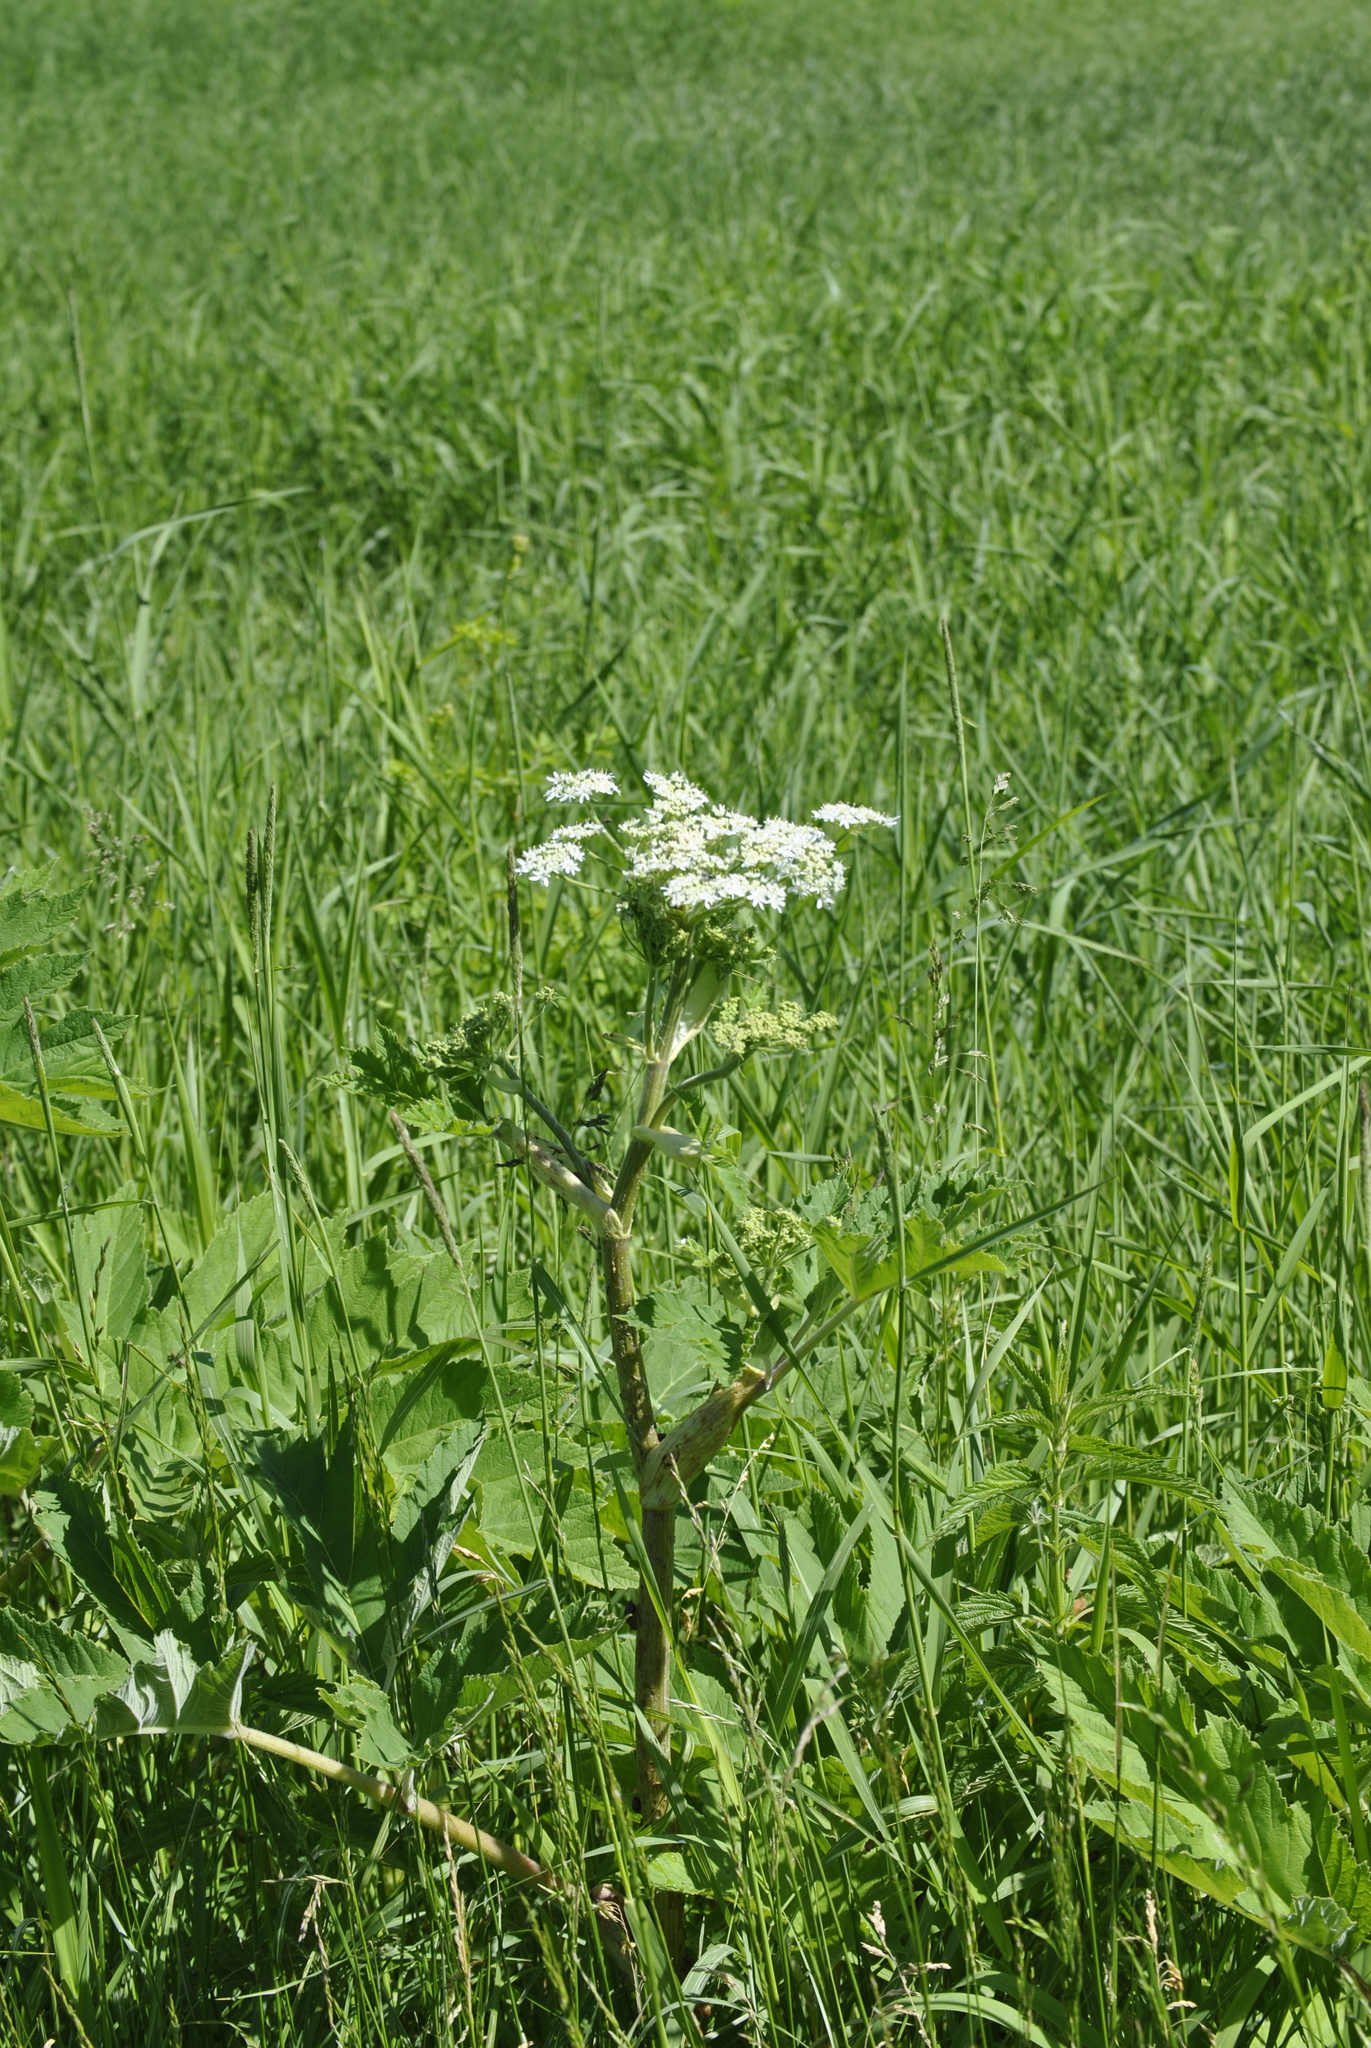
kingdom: Plantae
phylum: Tracheophyta
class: Magnoliopsida
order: Apiales
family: Apiaceae
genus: Heracleum
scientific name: Heracleum maximum
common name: American cow parsnip
